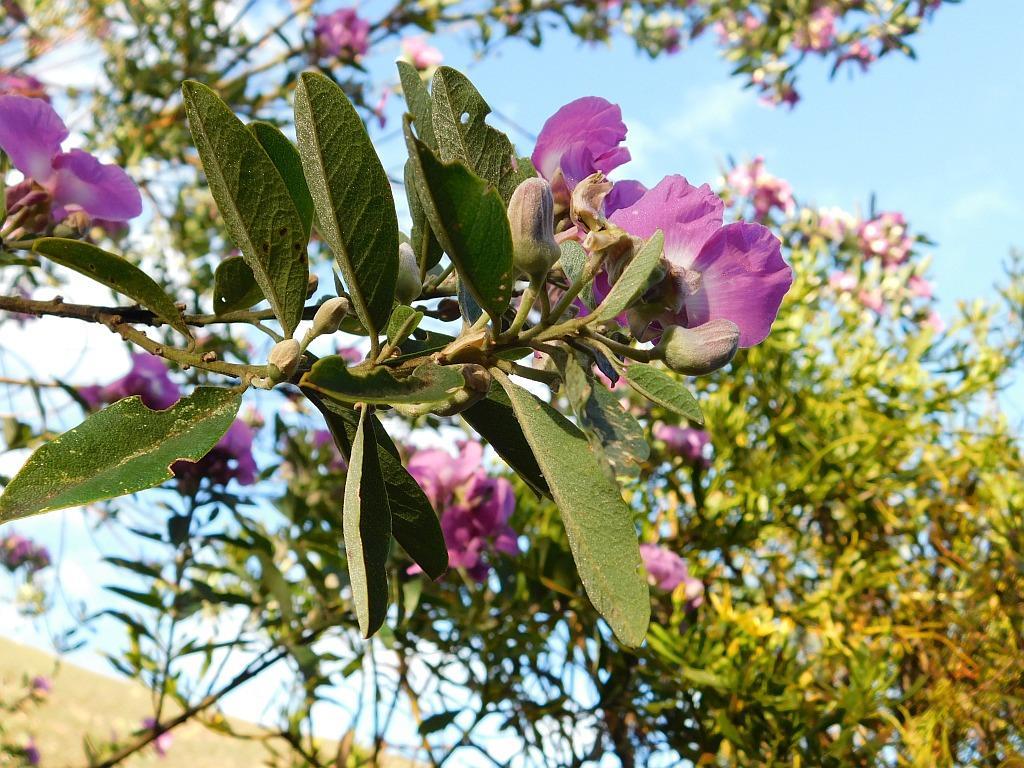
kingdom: Plantae
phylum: Tracheophyta
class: Magnoliopsida
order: Fabales
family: Fabaceae
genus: Podalyria
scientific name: Podalyria calyptrata
